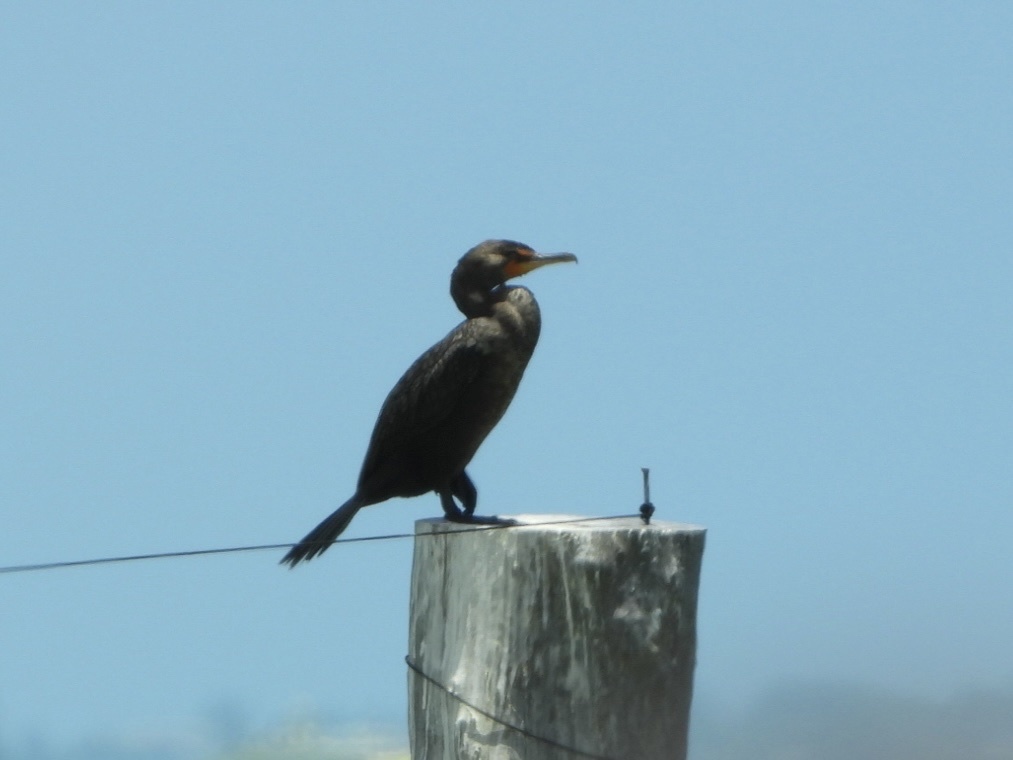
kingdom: Animalia
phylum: Chordata
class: Aves
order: Suliformes
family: Phalacrocoracidae
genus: Phalacrocorax
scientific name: Phalacrocorax auritus
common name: Double-crested cormorant
